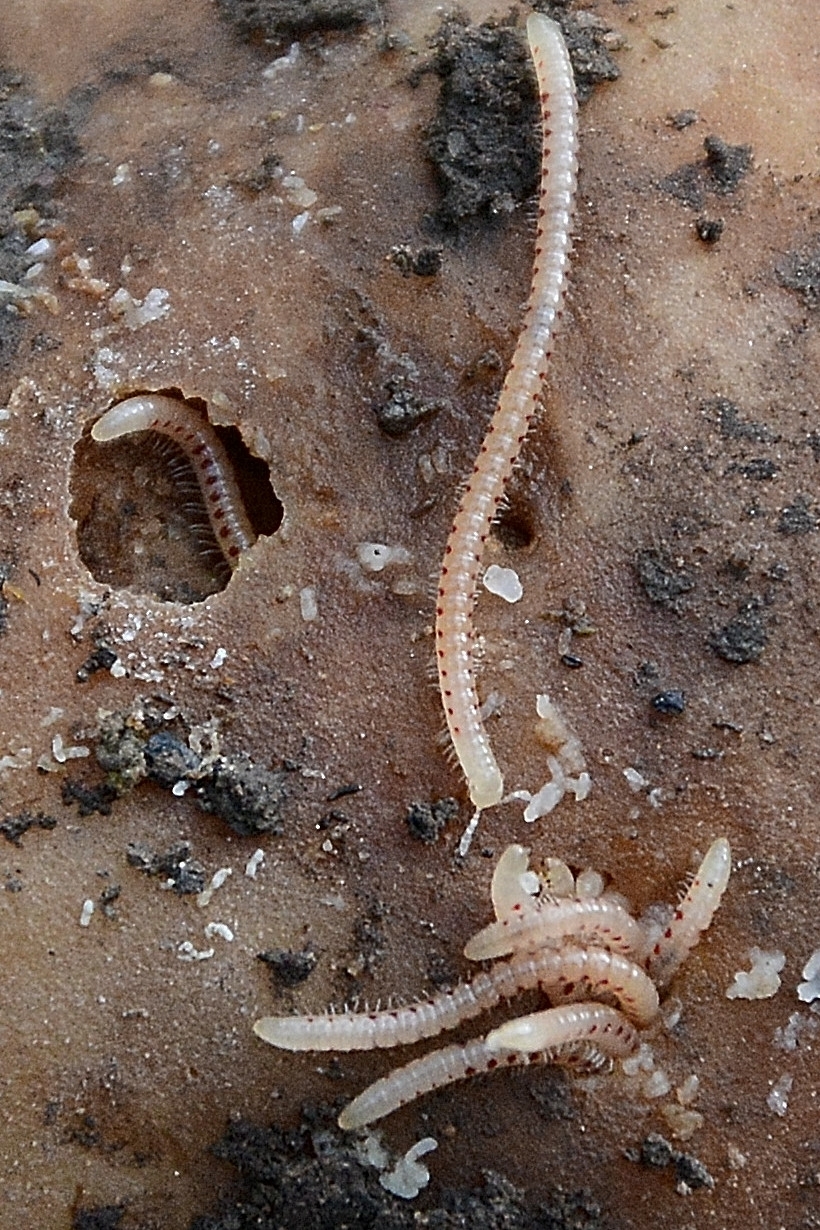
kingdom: Animalia
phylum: Arthropoda
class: Diplopoda
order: Julida
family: Blaniulidae
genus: Blaniulus
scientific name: Blaniulus guttulatus
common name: Spotted snake millipede
